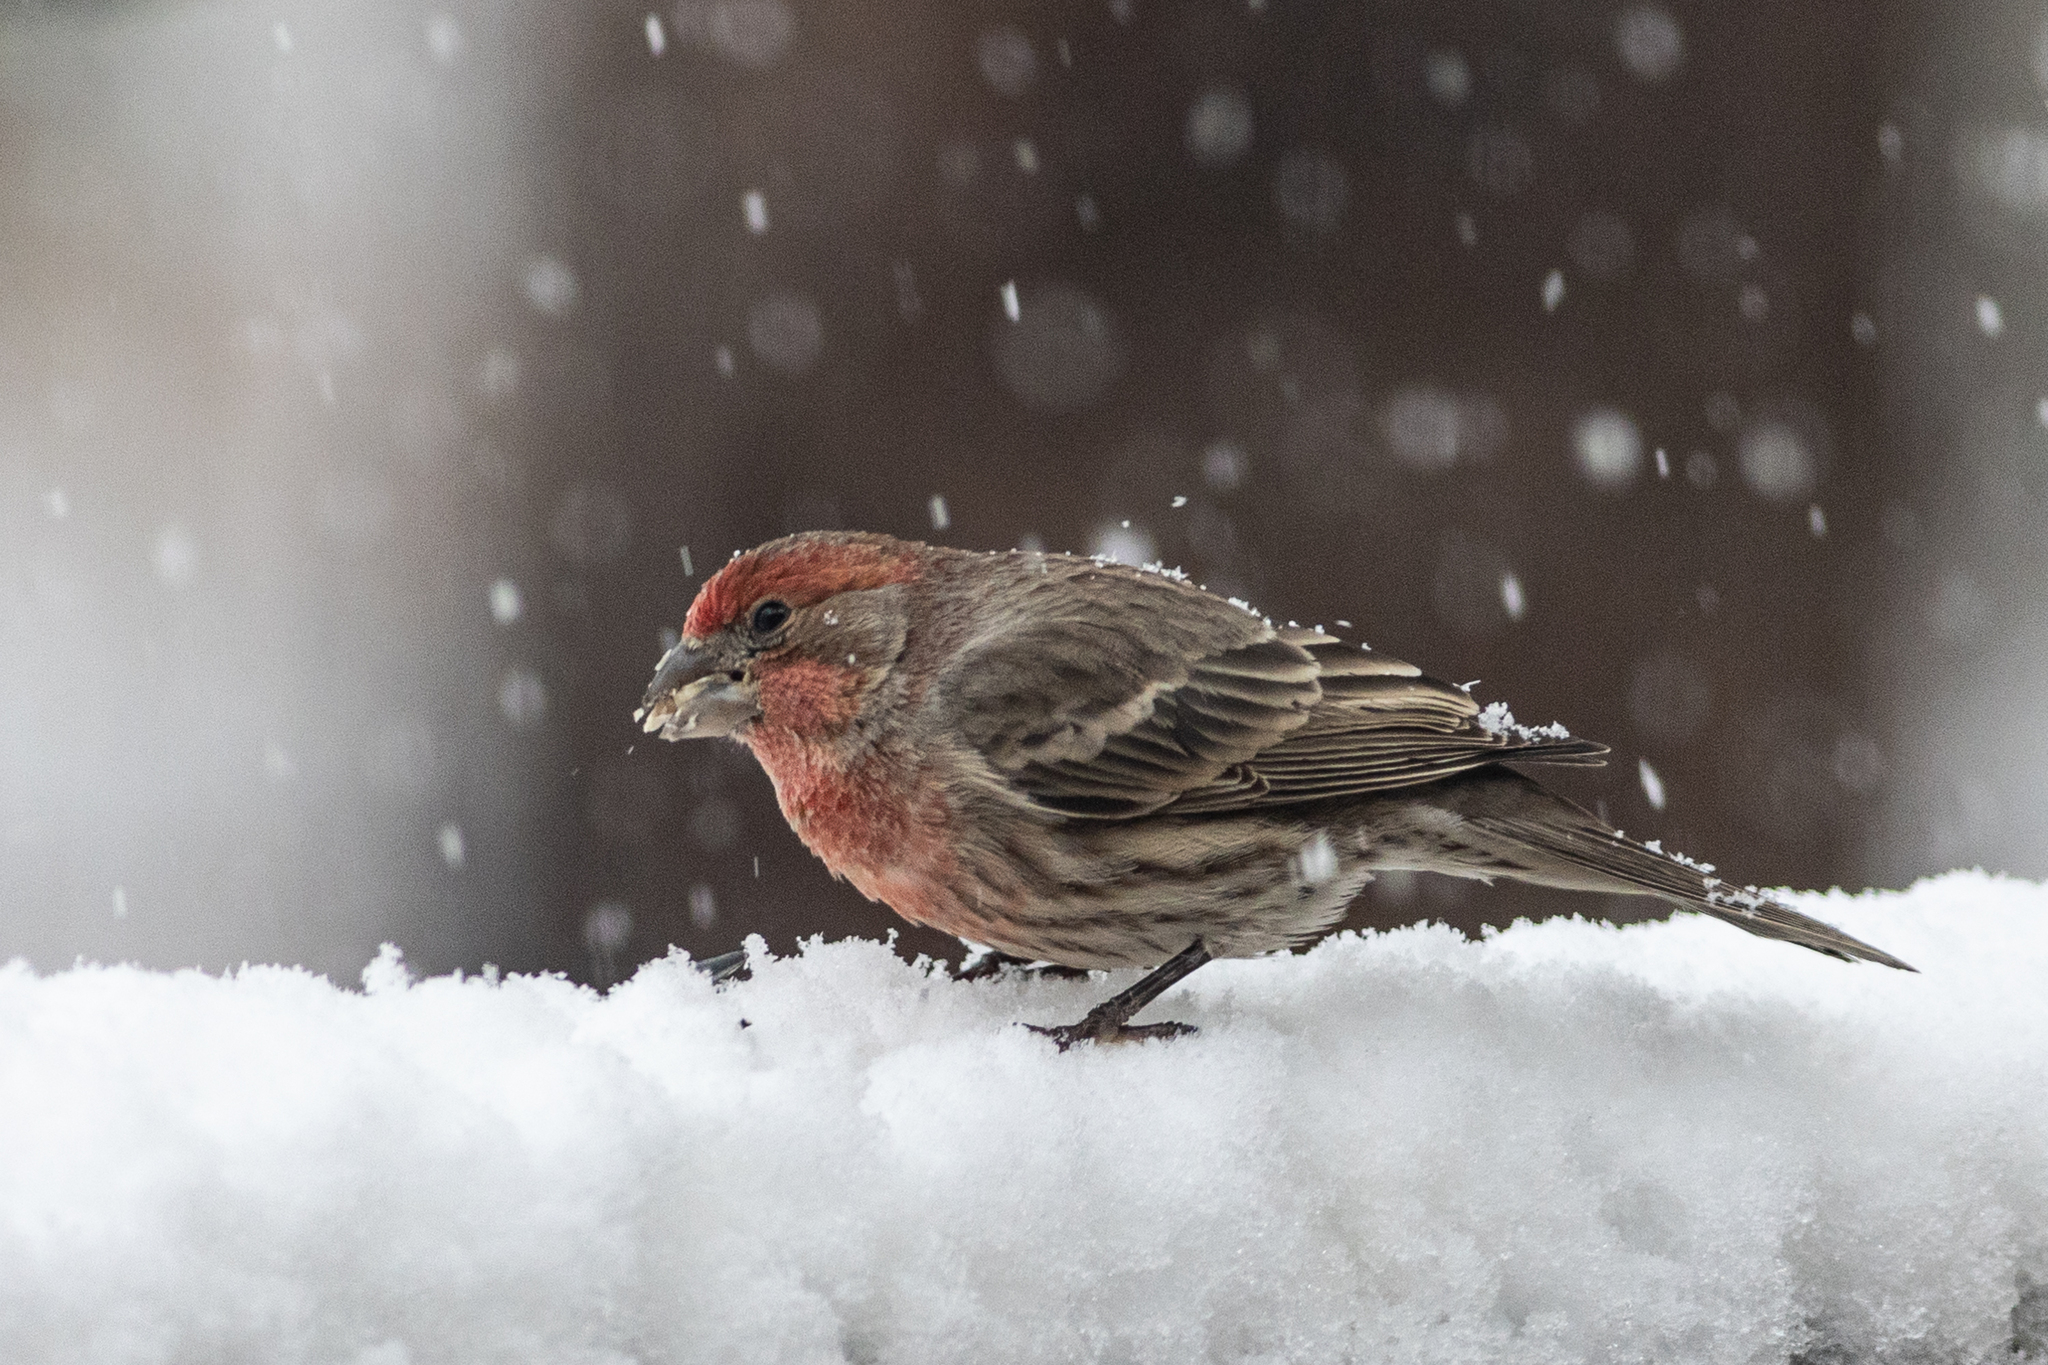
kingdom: Animalia
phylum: Chordata
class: Aves
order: Passeriformes
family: Fringillidae
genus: Haemorhous
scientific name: Haemorhous mexicanus
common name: House finch
